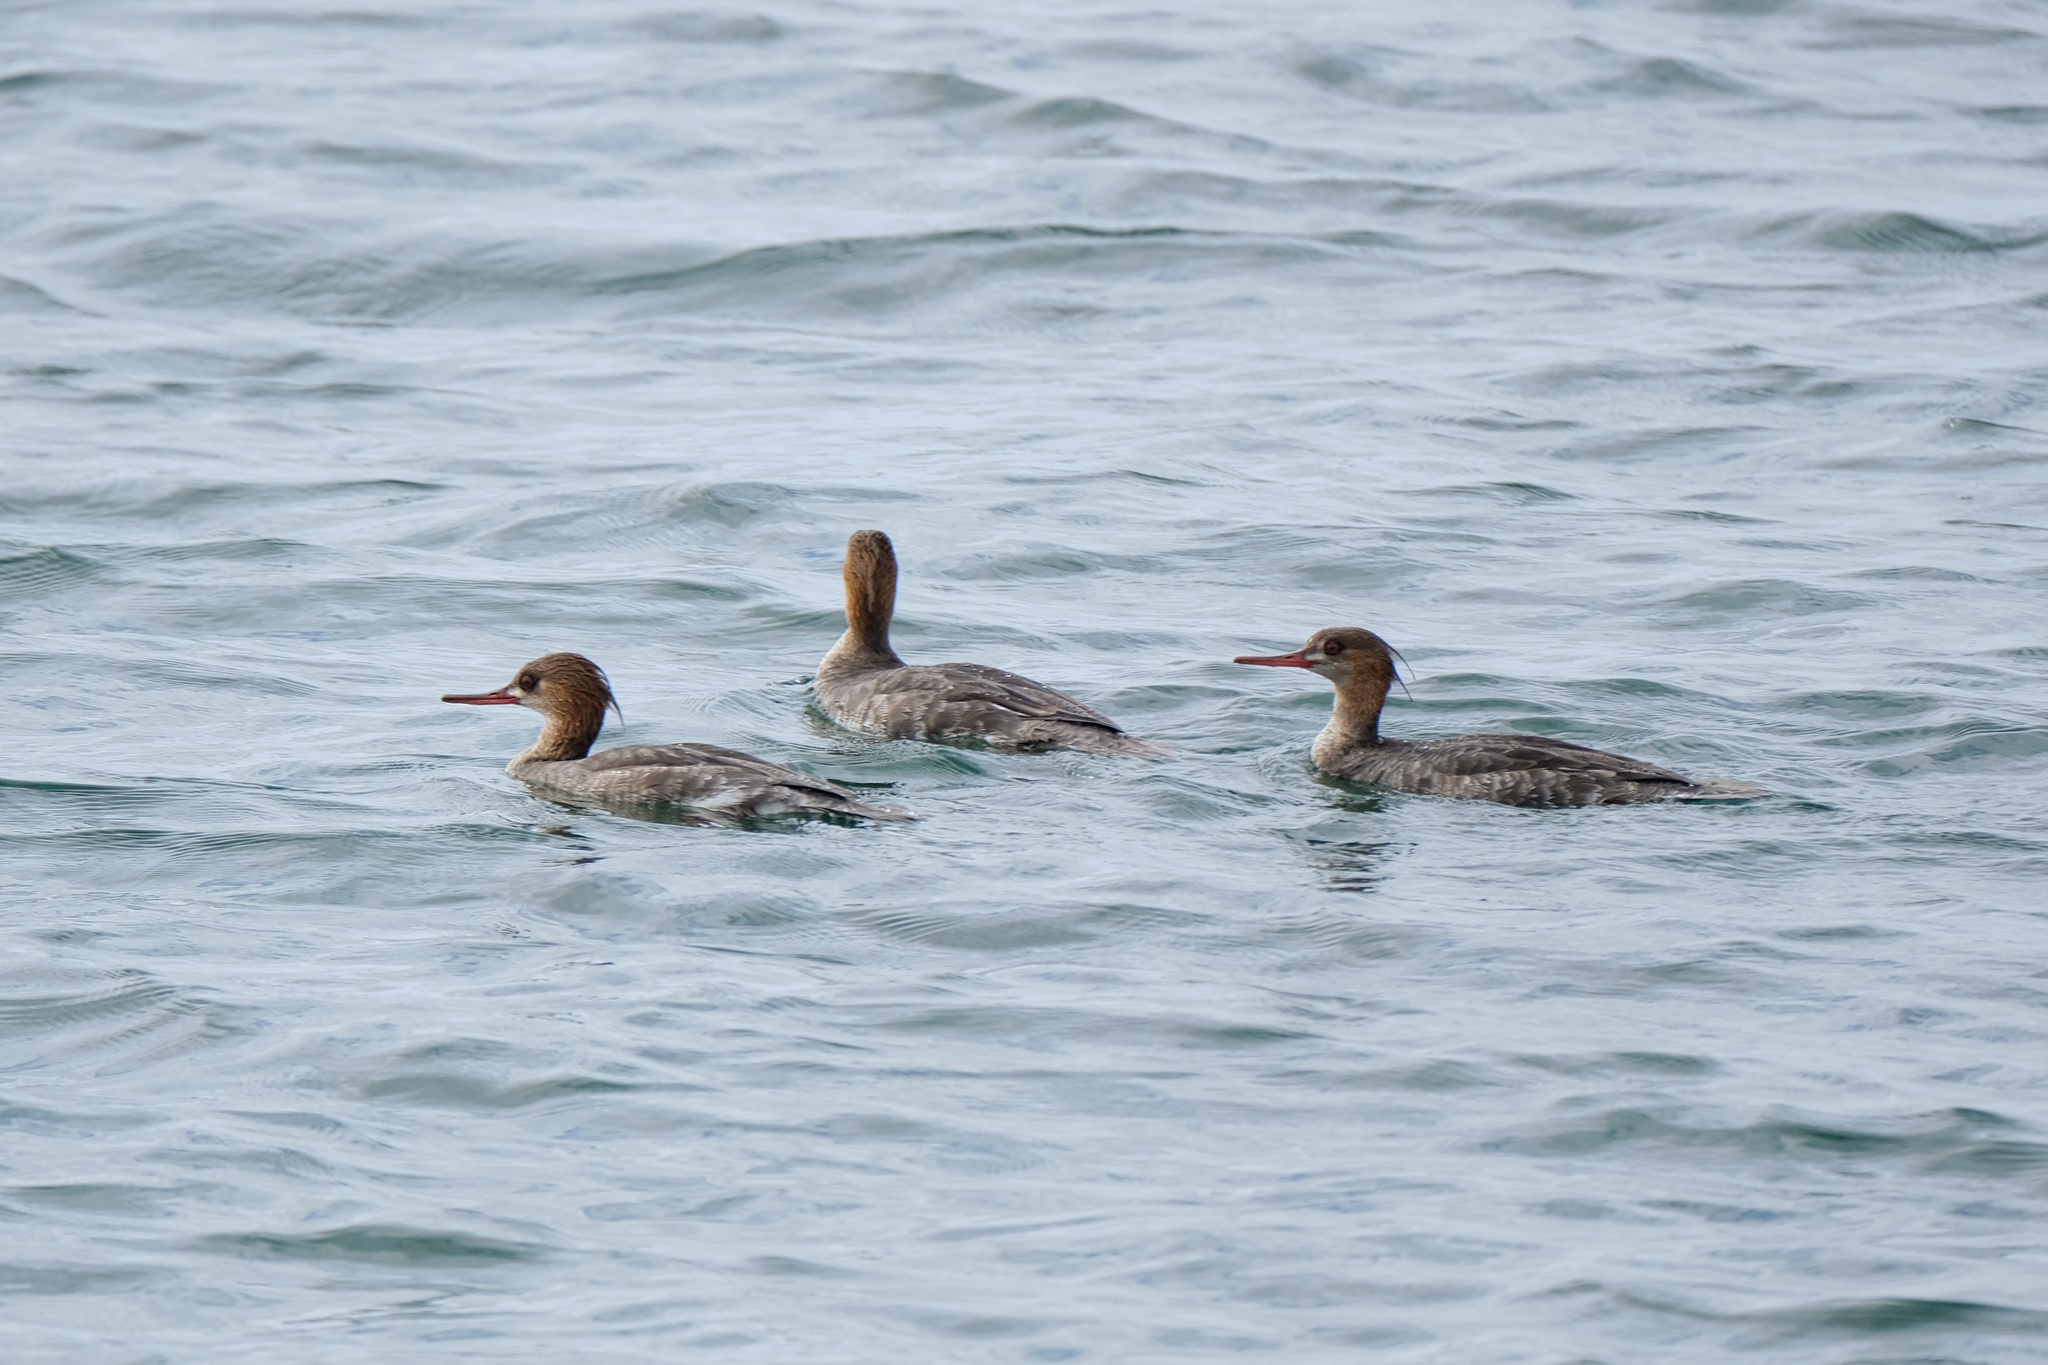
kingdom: Animalia
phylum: Chordata
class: Aves
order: Anseriformes
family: Anatidae
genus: Mergus
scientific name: Mergus serrator
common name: Red-breasted merganser
